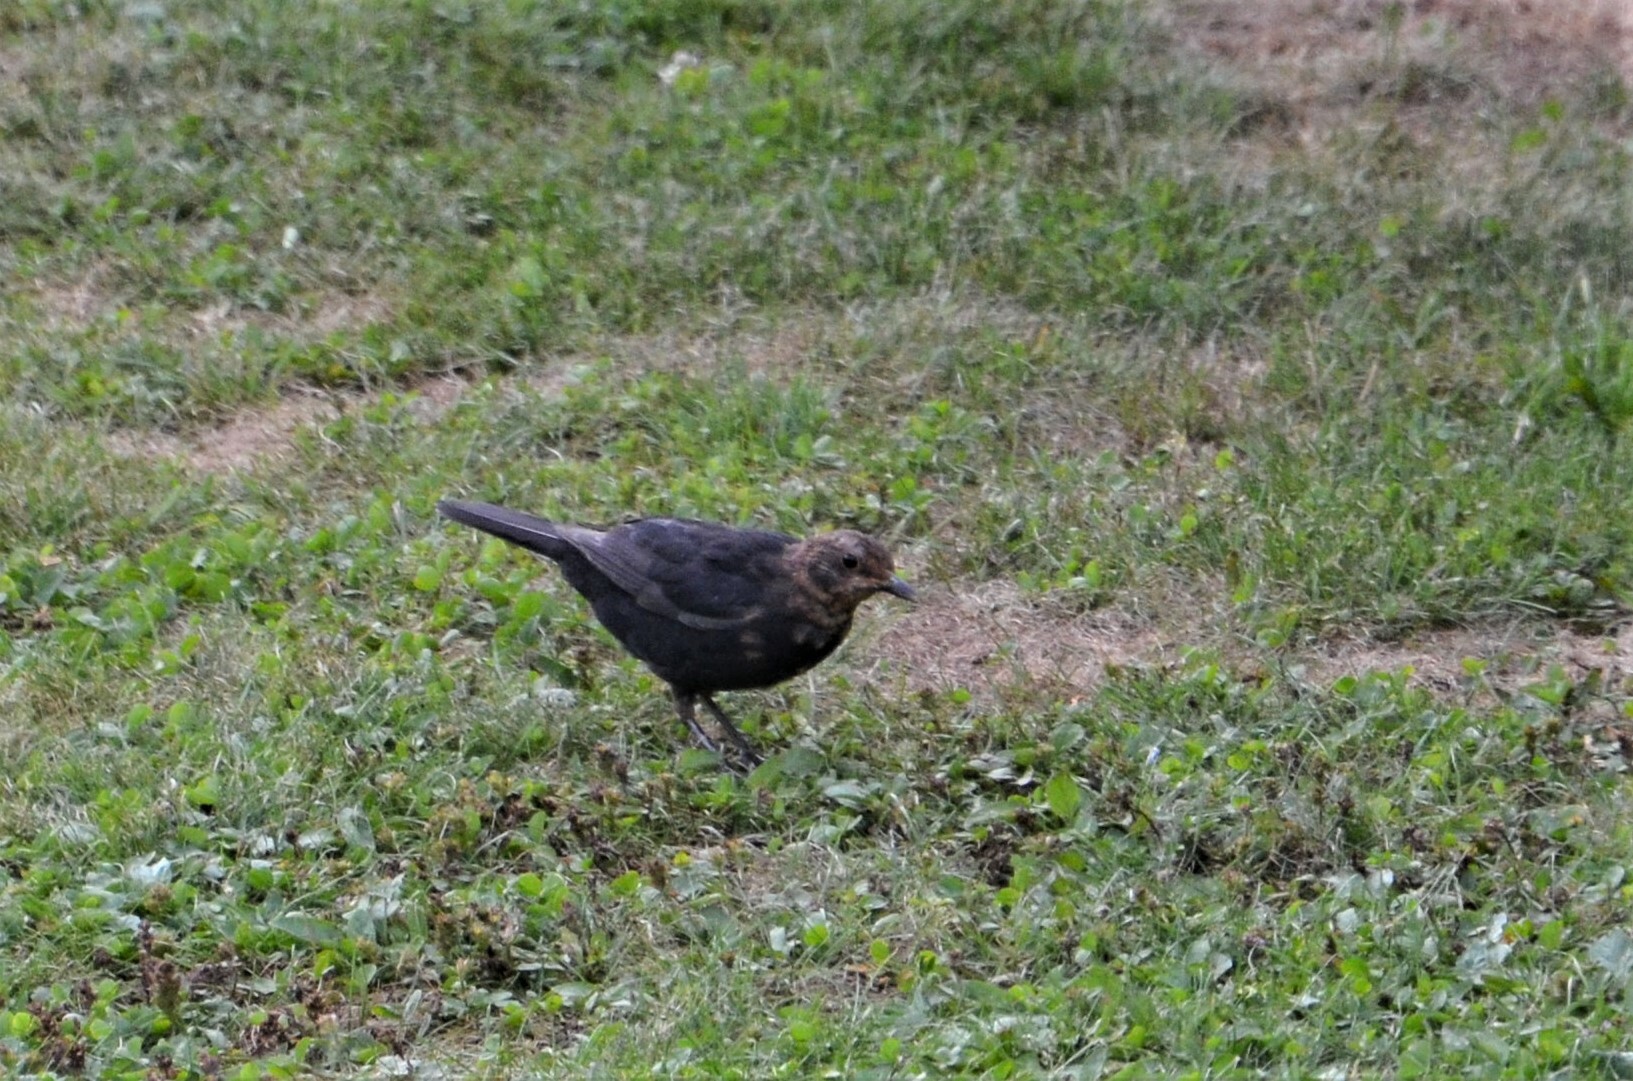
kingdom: Animalia
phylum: Chordata
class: Aves
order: Passeriformes
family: Turdidae
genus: Turdus
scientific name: Turdus merula
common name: Common blackbird
